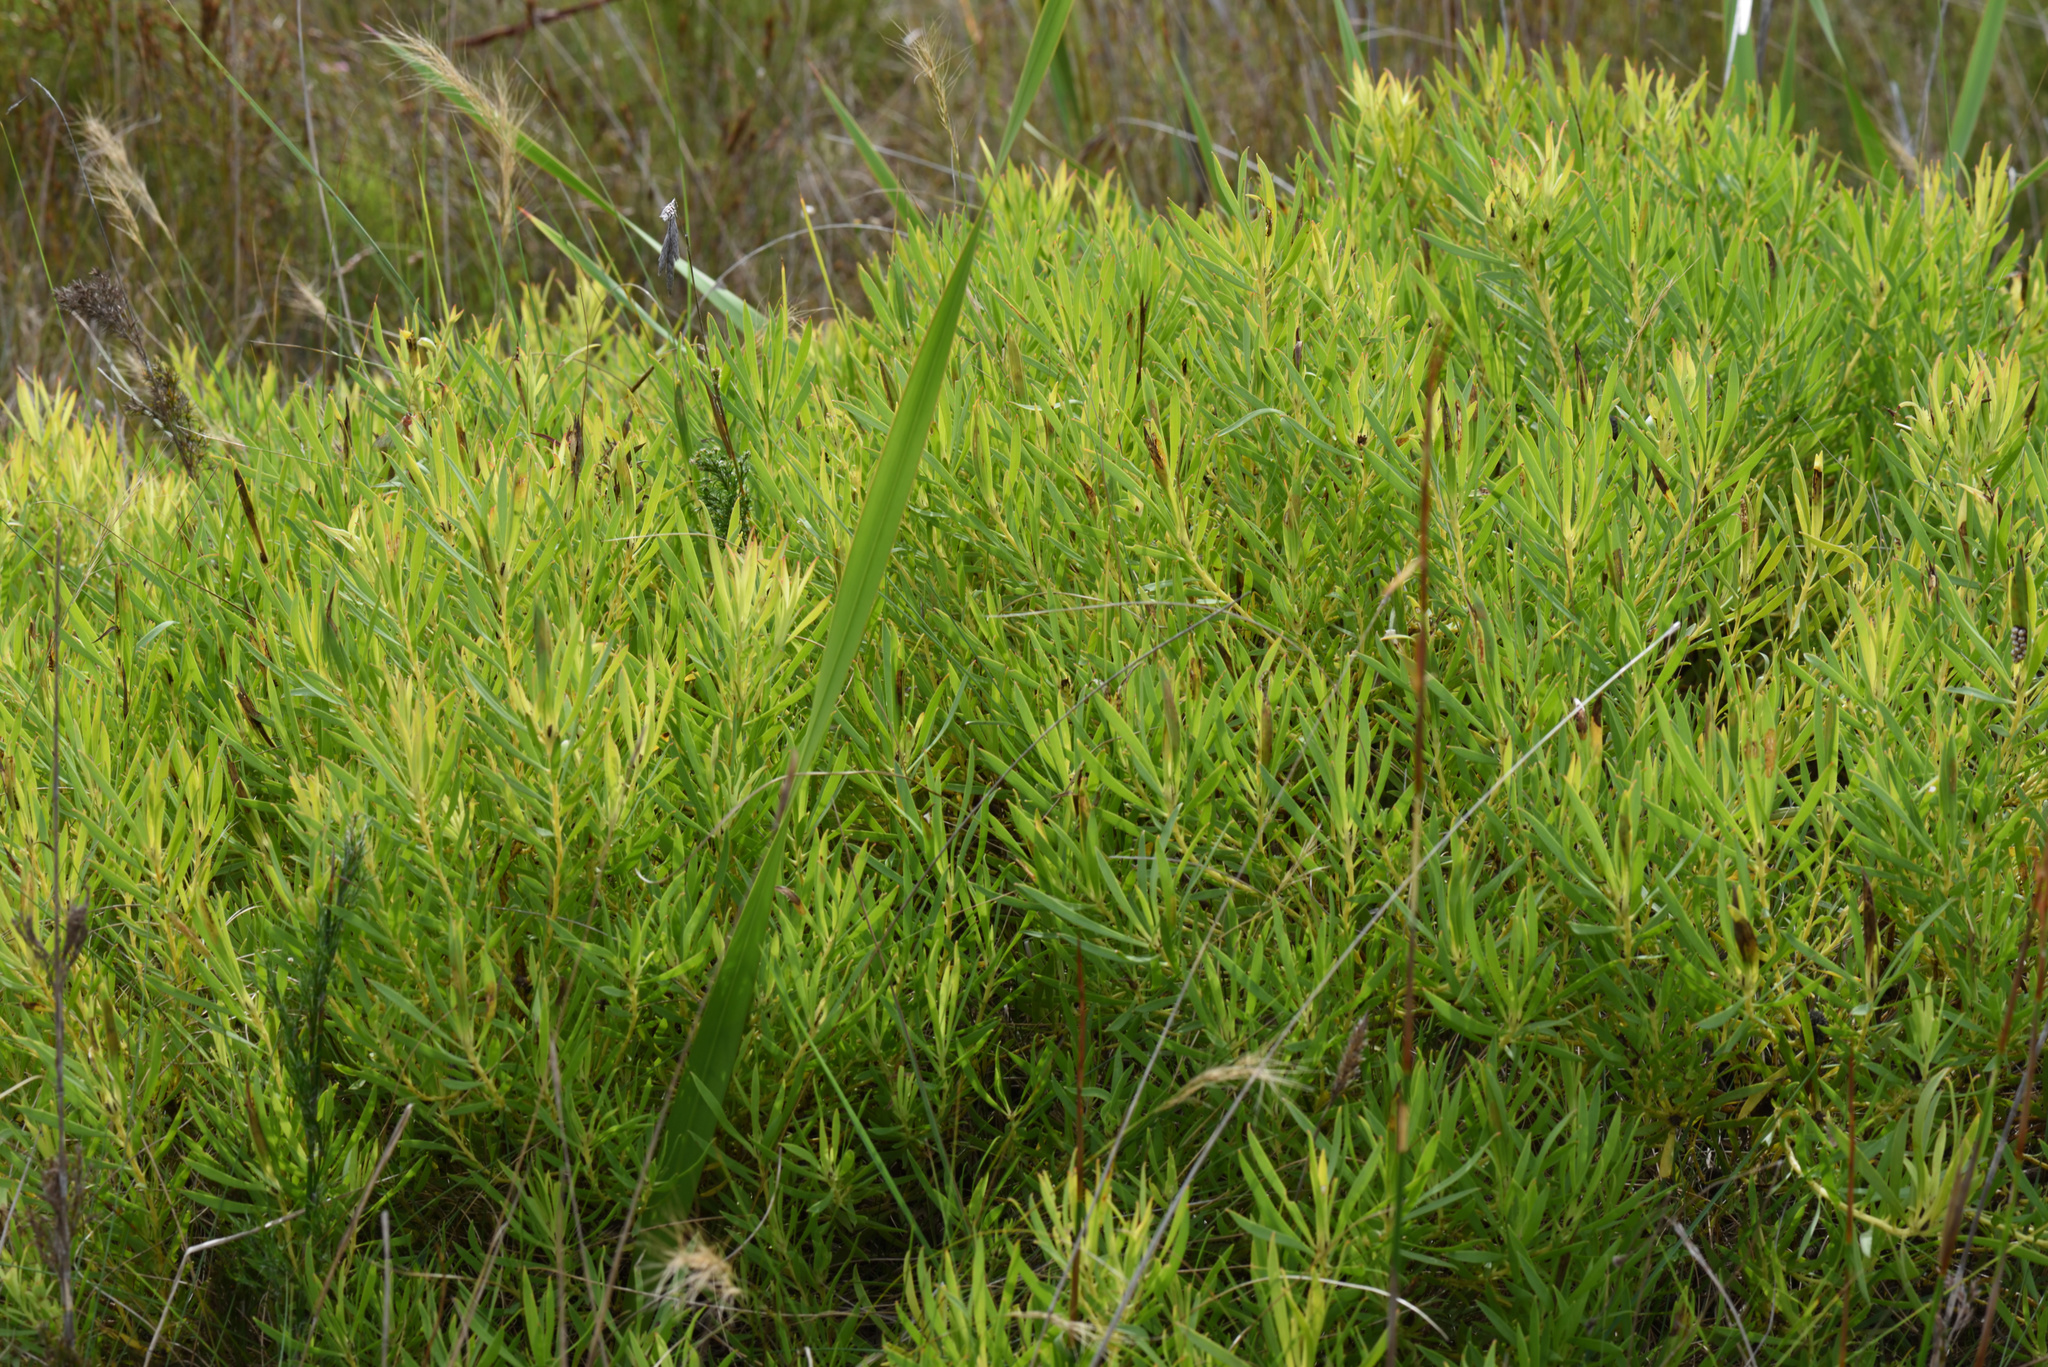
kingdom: Plantae
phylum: Tracheophyta
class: Magnoliopsida
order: Proteales
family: Proteaceae
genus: Leucadendron
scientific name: Leucadendron salignum
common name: Common sunshine conebush
